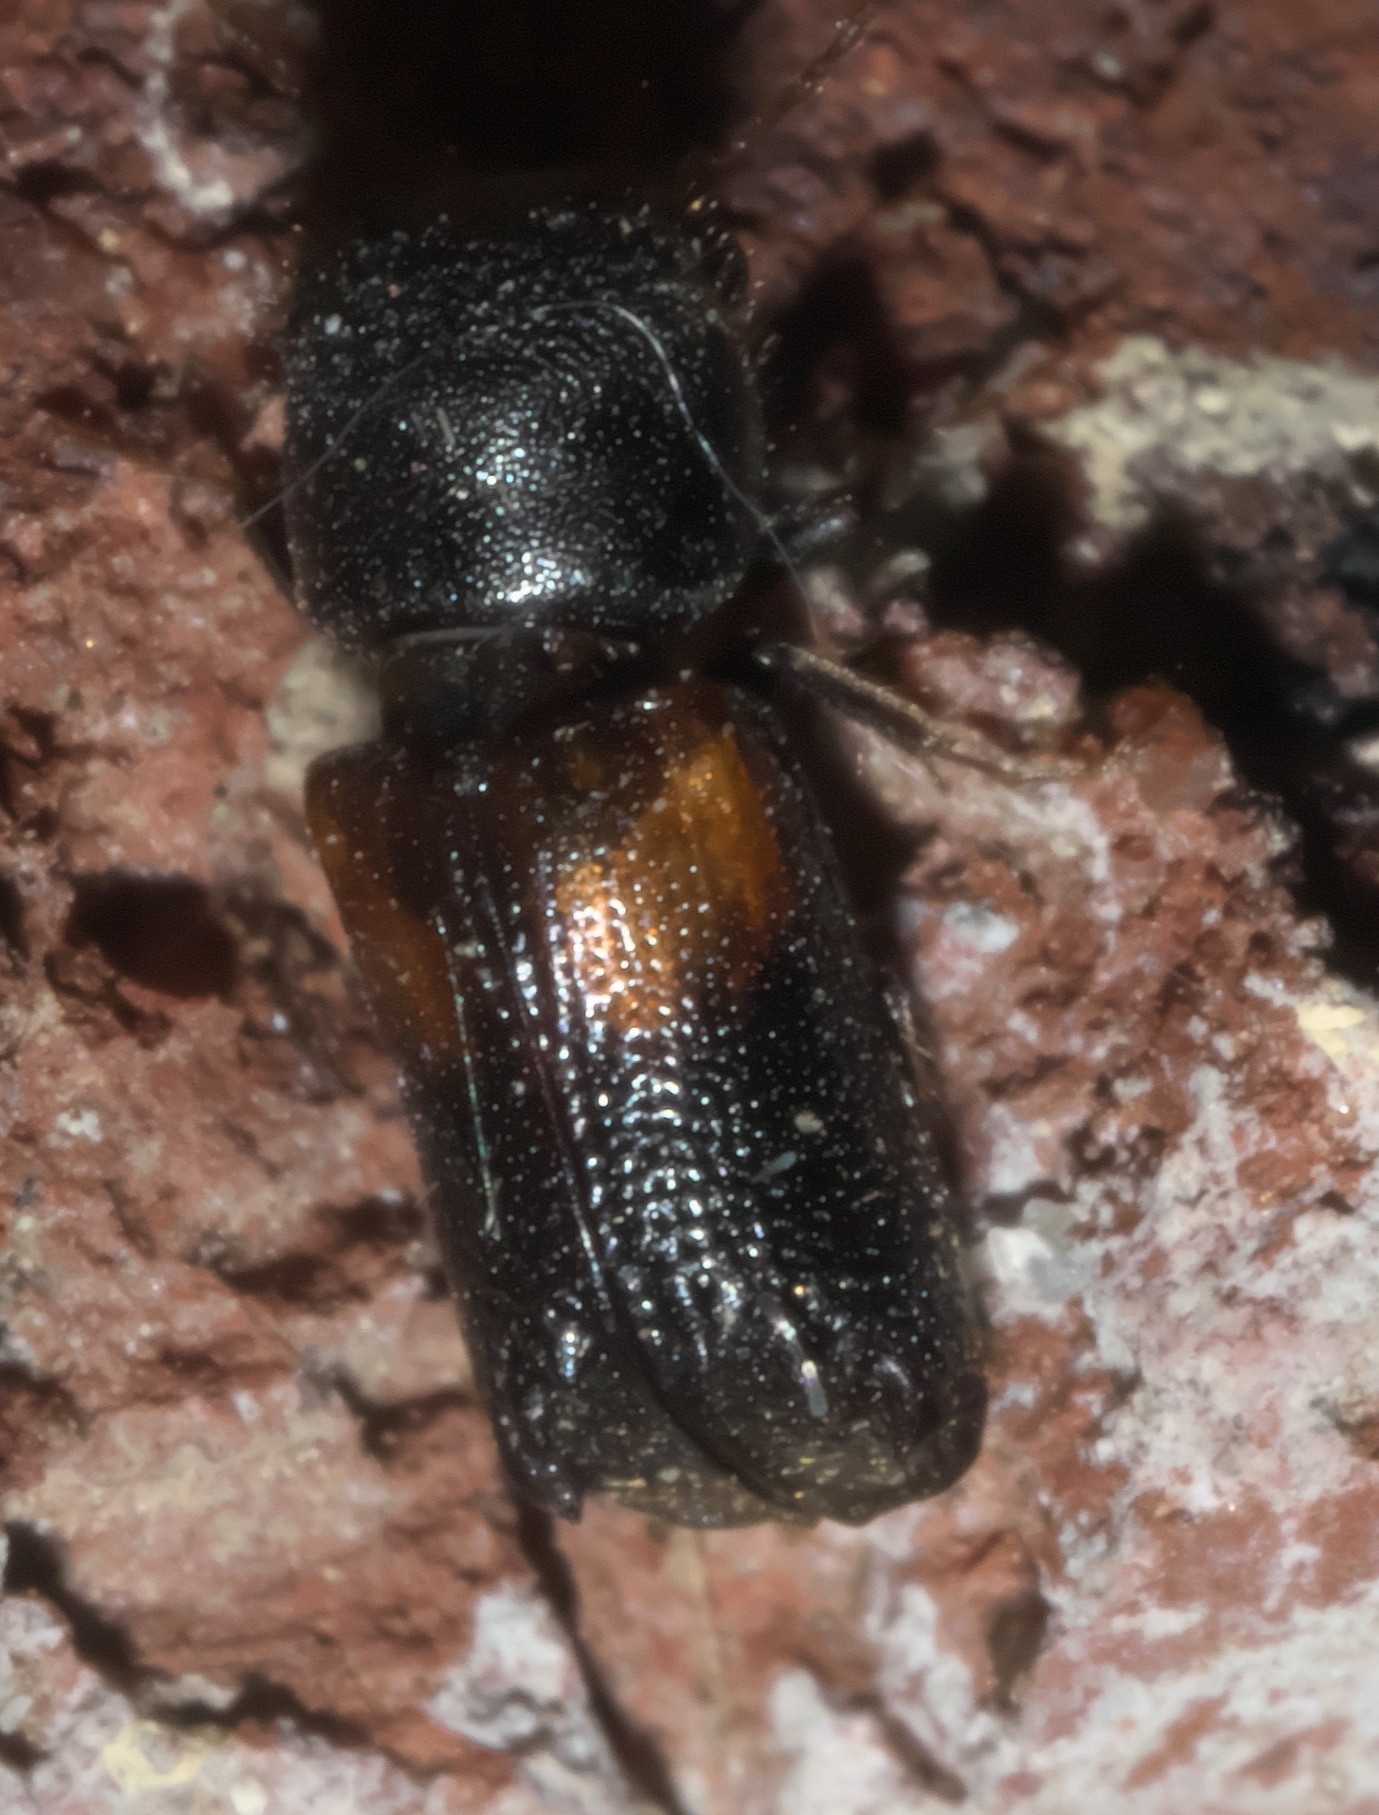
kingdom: Animalia
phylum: Arthropoda
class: Insecta
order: Coleoptera
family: Bostrichidae
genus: Xylobiops
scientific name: Xylobiops basilaris
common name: Red-shouldered bostrichid
